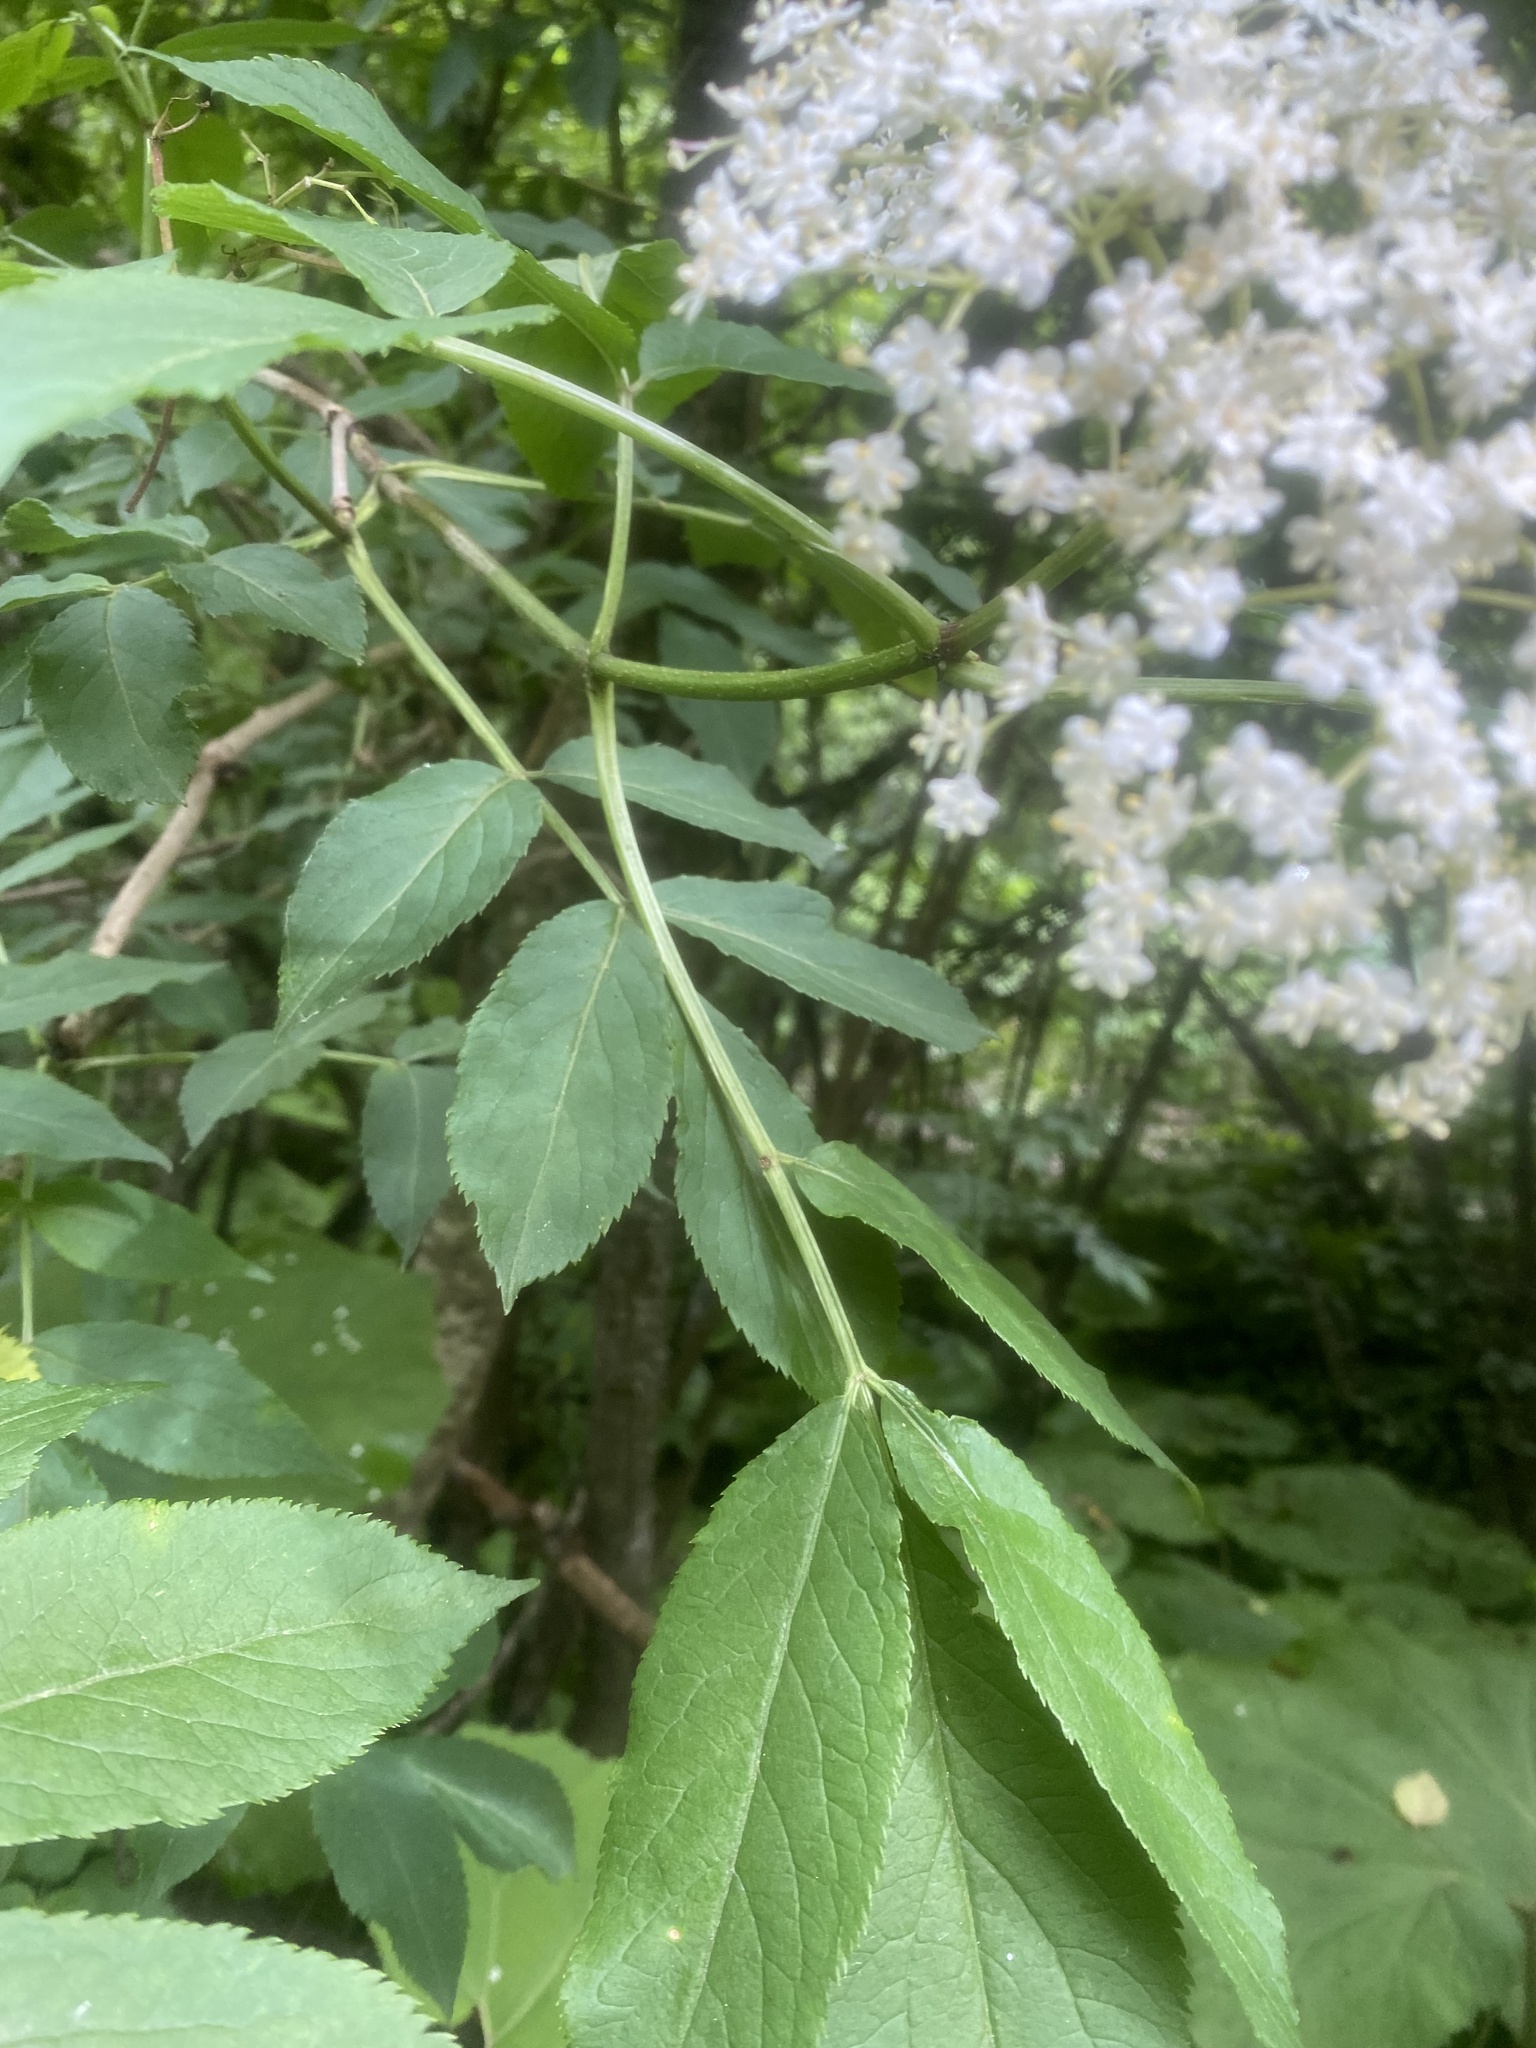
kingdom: Plantae
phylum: Tracheophyta
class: Magnoliopsida
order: Dipsacales
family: Viburnaceae
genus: Sambucus
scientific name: Sambucus nigra
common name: Elder
